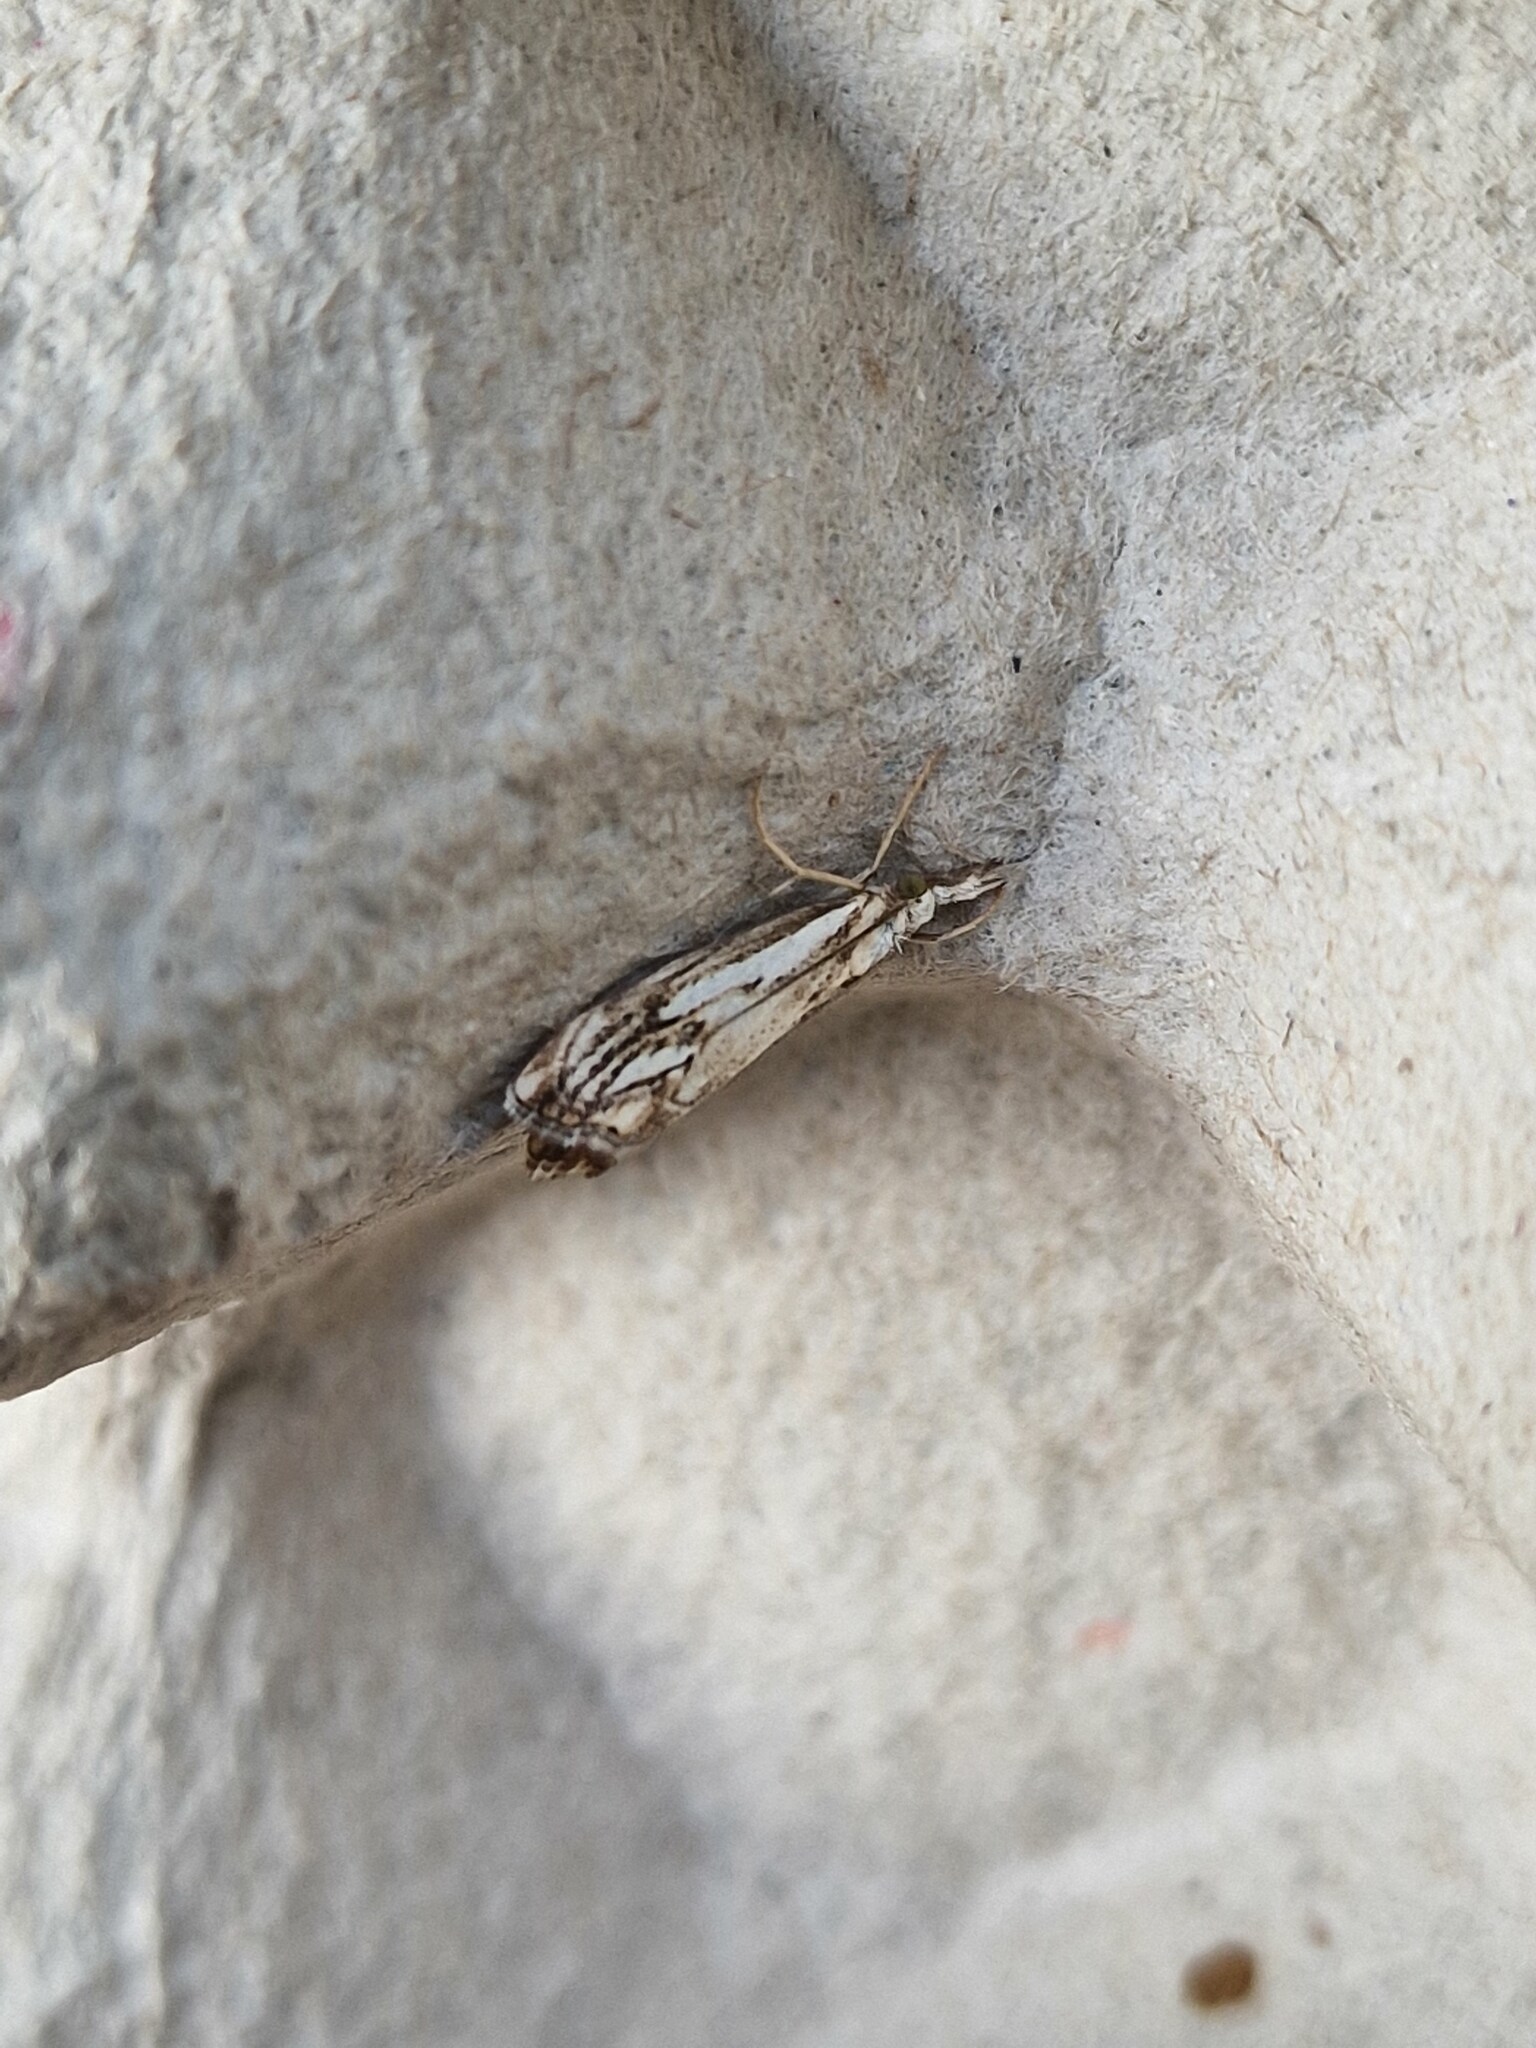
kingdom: Animalia
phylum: Arthropoda
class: Insecta
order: Lepidoptera
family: Crambidae
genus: Catoptria
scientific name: Catoptria falsella
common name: Chequered grass-veneer
